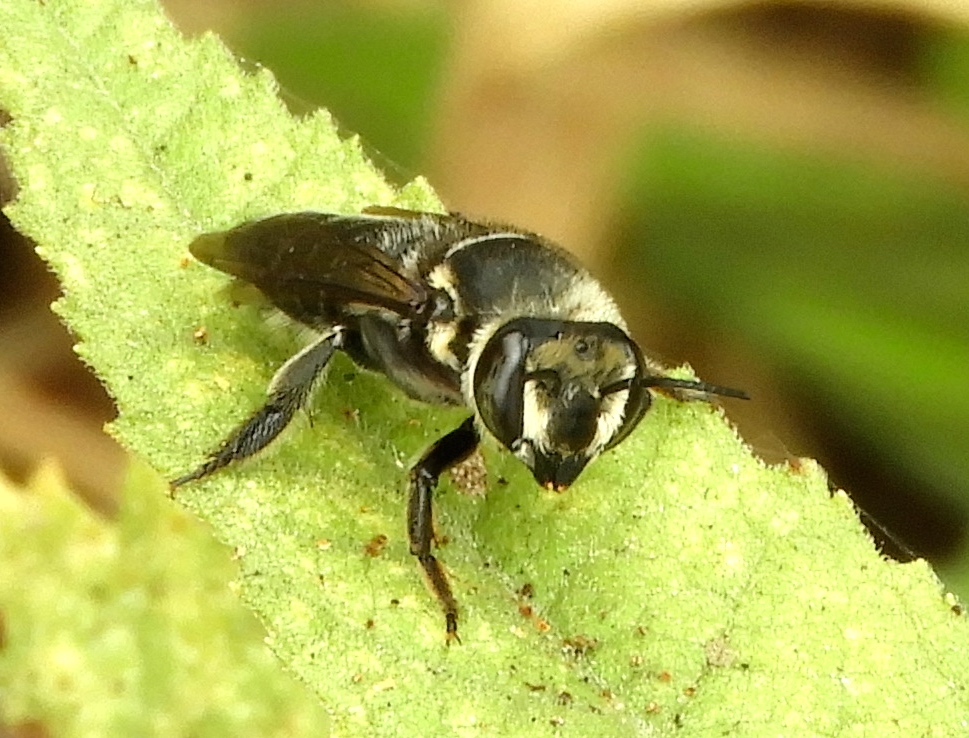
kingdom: Animalia
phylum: Arthropoda
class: Insecta
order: Hymenoptera
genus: Tylomegachile
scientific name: Tylomegachile
